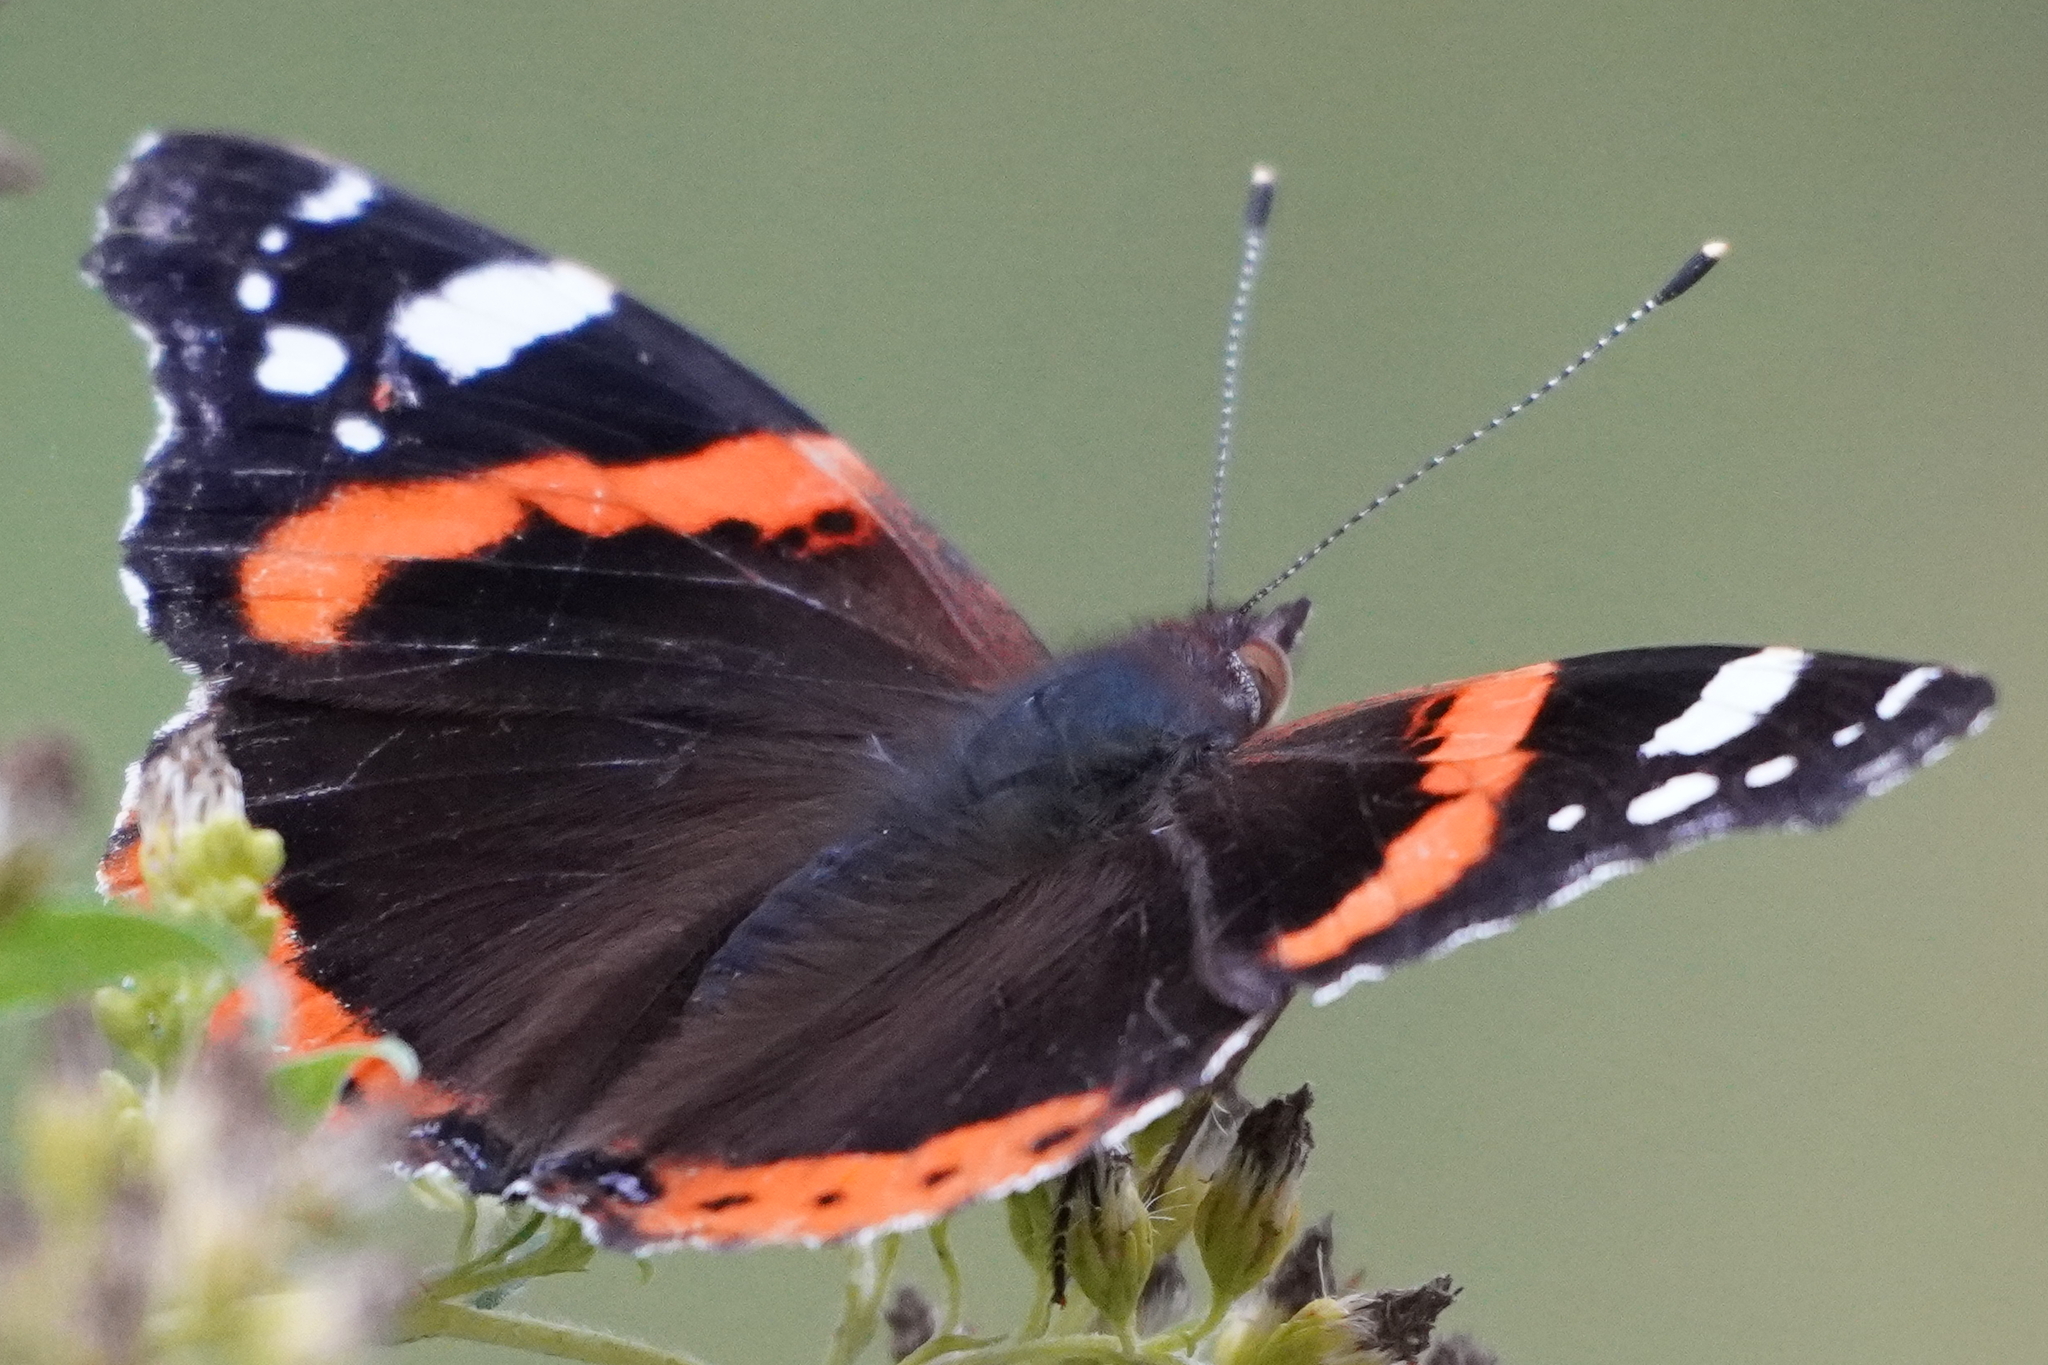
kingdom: Animalia
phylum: Arthropoda
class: Insecta
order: Lepidoptera
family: Nymphalidae
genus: Vanessa
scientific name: Vanessa atalanta
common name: Red admiral
